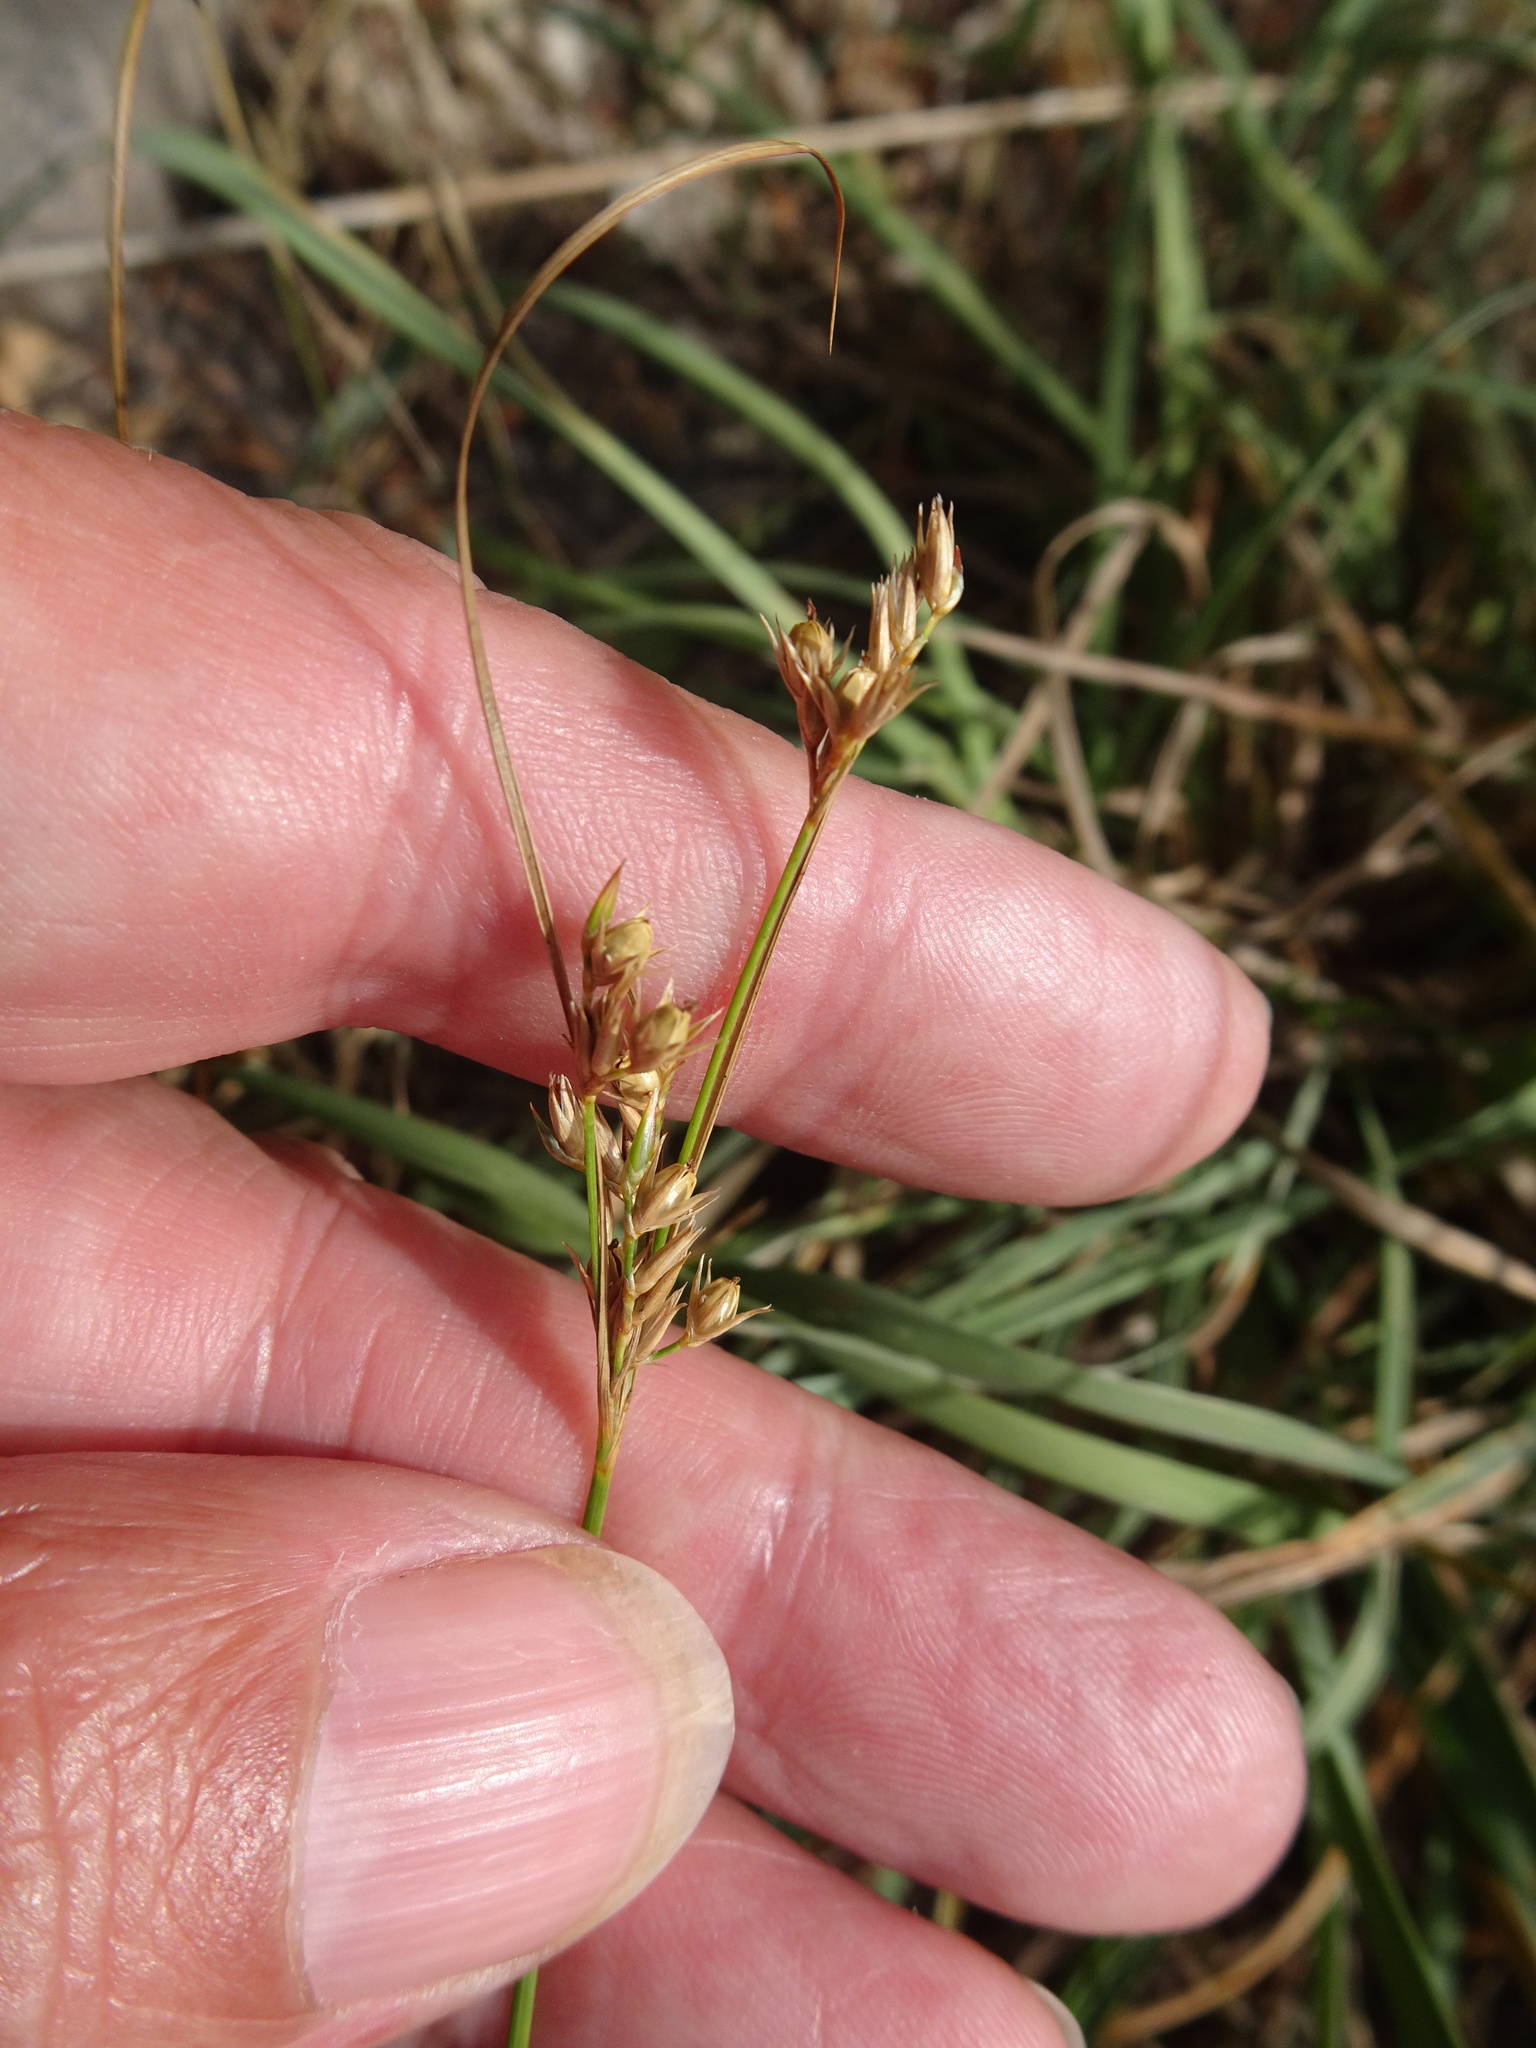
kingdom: Plantae
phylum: Tracheophyta
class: Liliopsida
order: Poales
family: Juncaceae
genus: Juncus
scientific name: Juncus tenuis
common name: Slender rush
